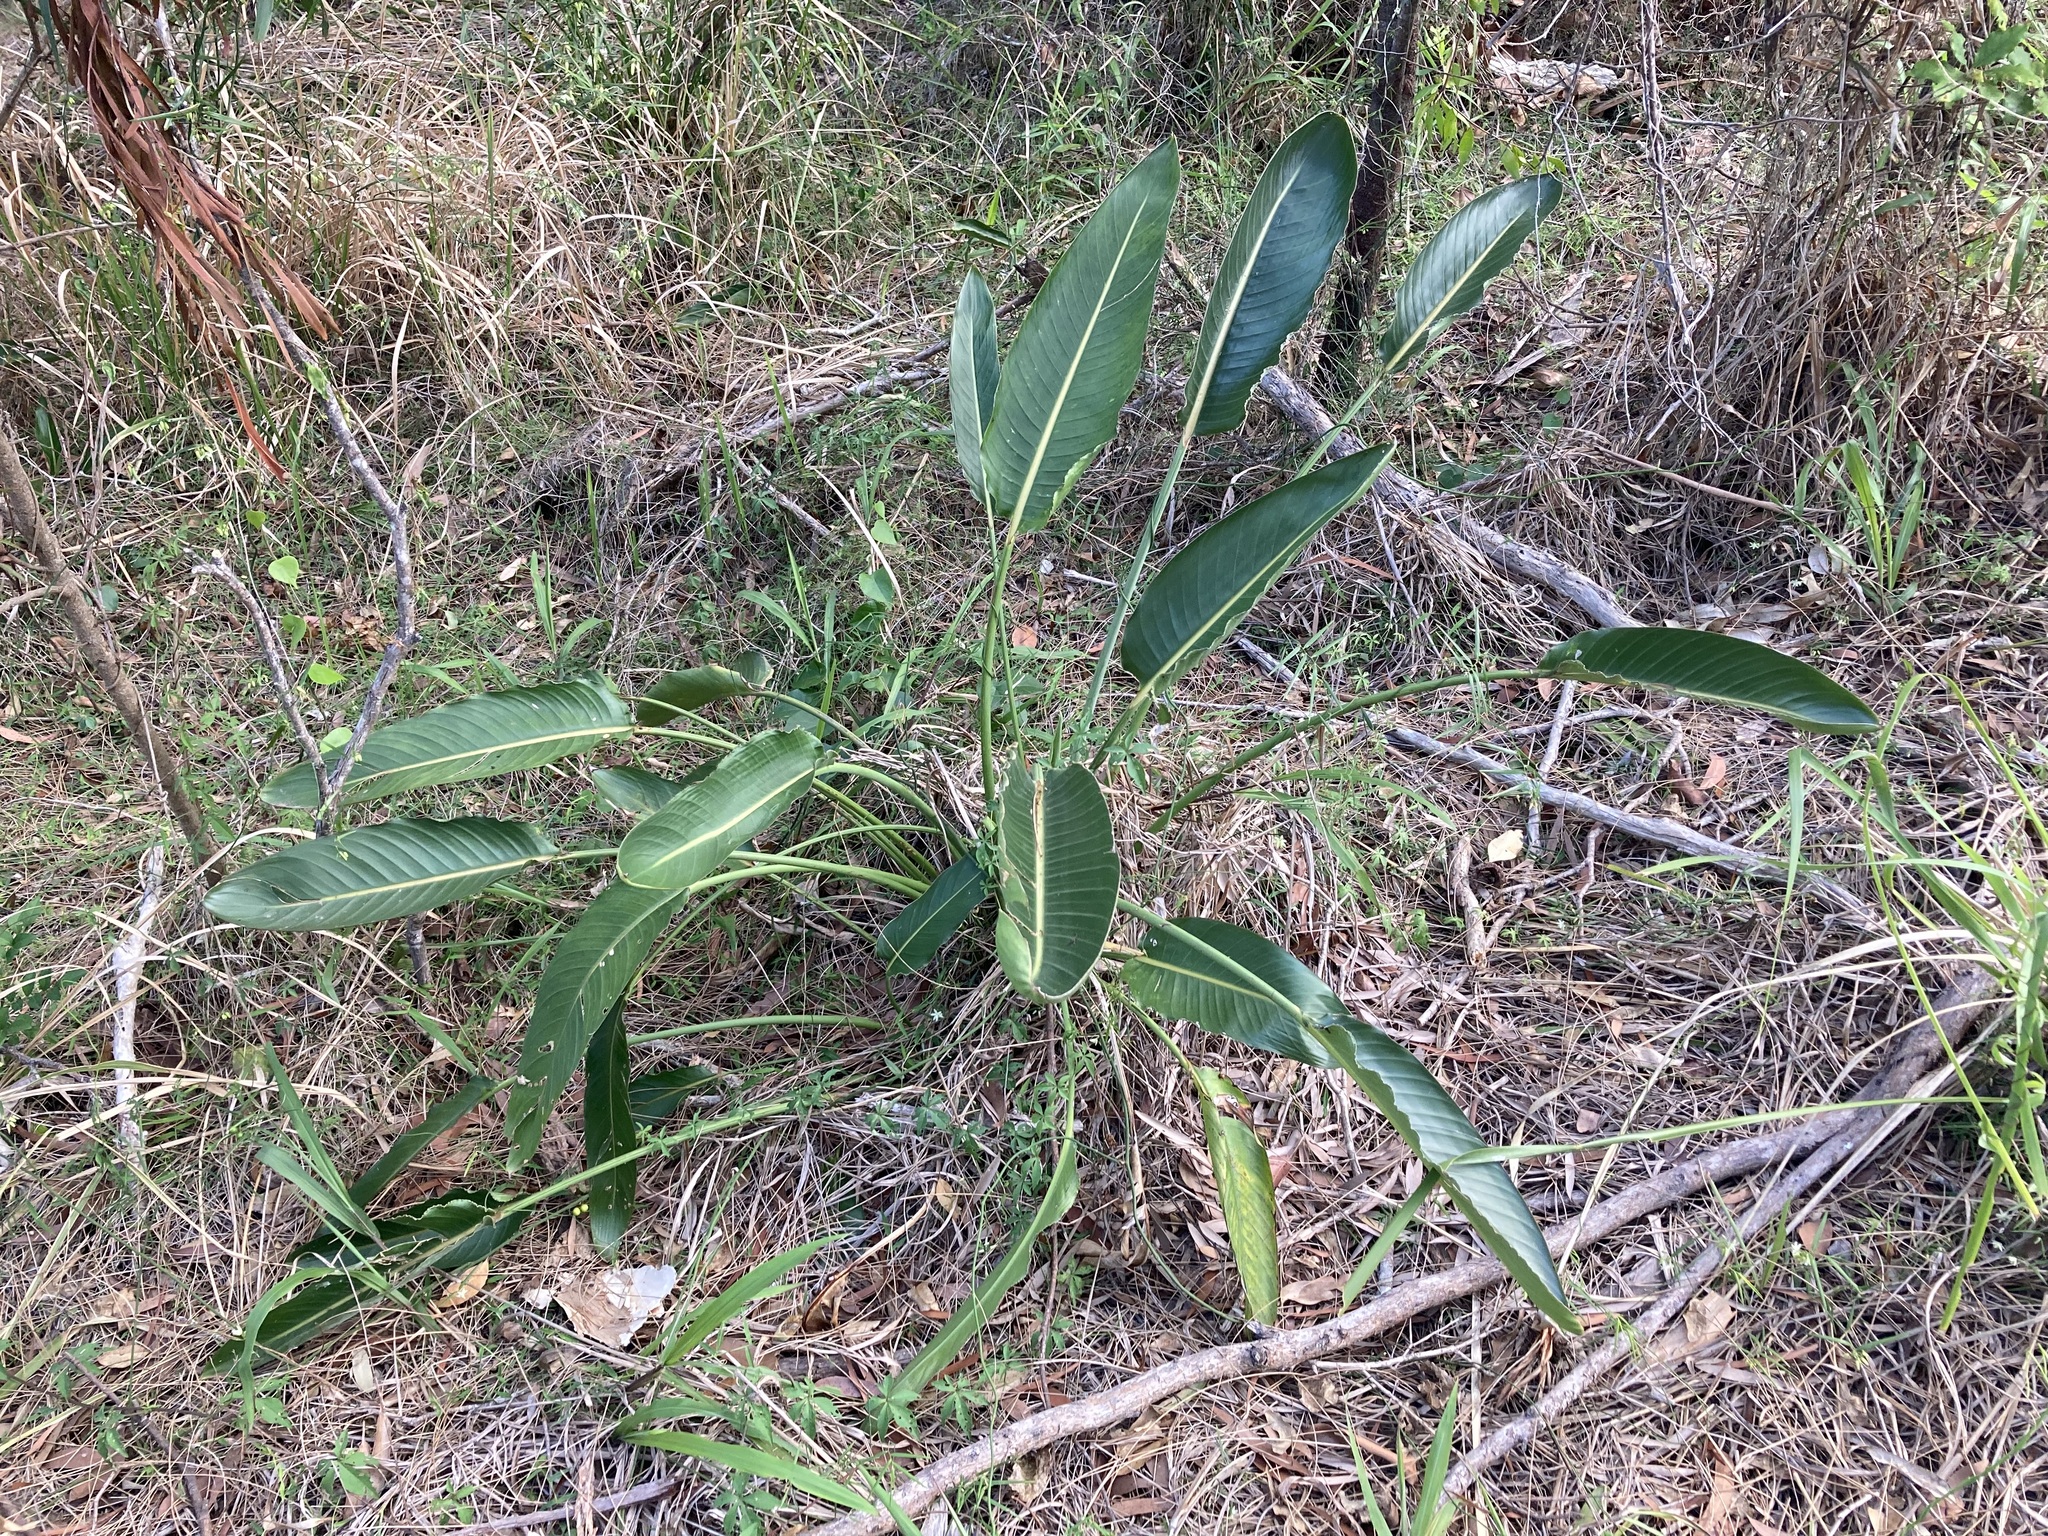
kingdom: Plantae
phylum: Tracheophyta
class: Liliopsida
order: Zingiberales
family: Strelitziaceae
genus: Strelitzia
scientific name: Strelitzia reginae
